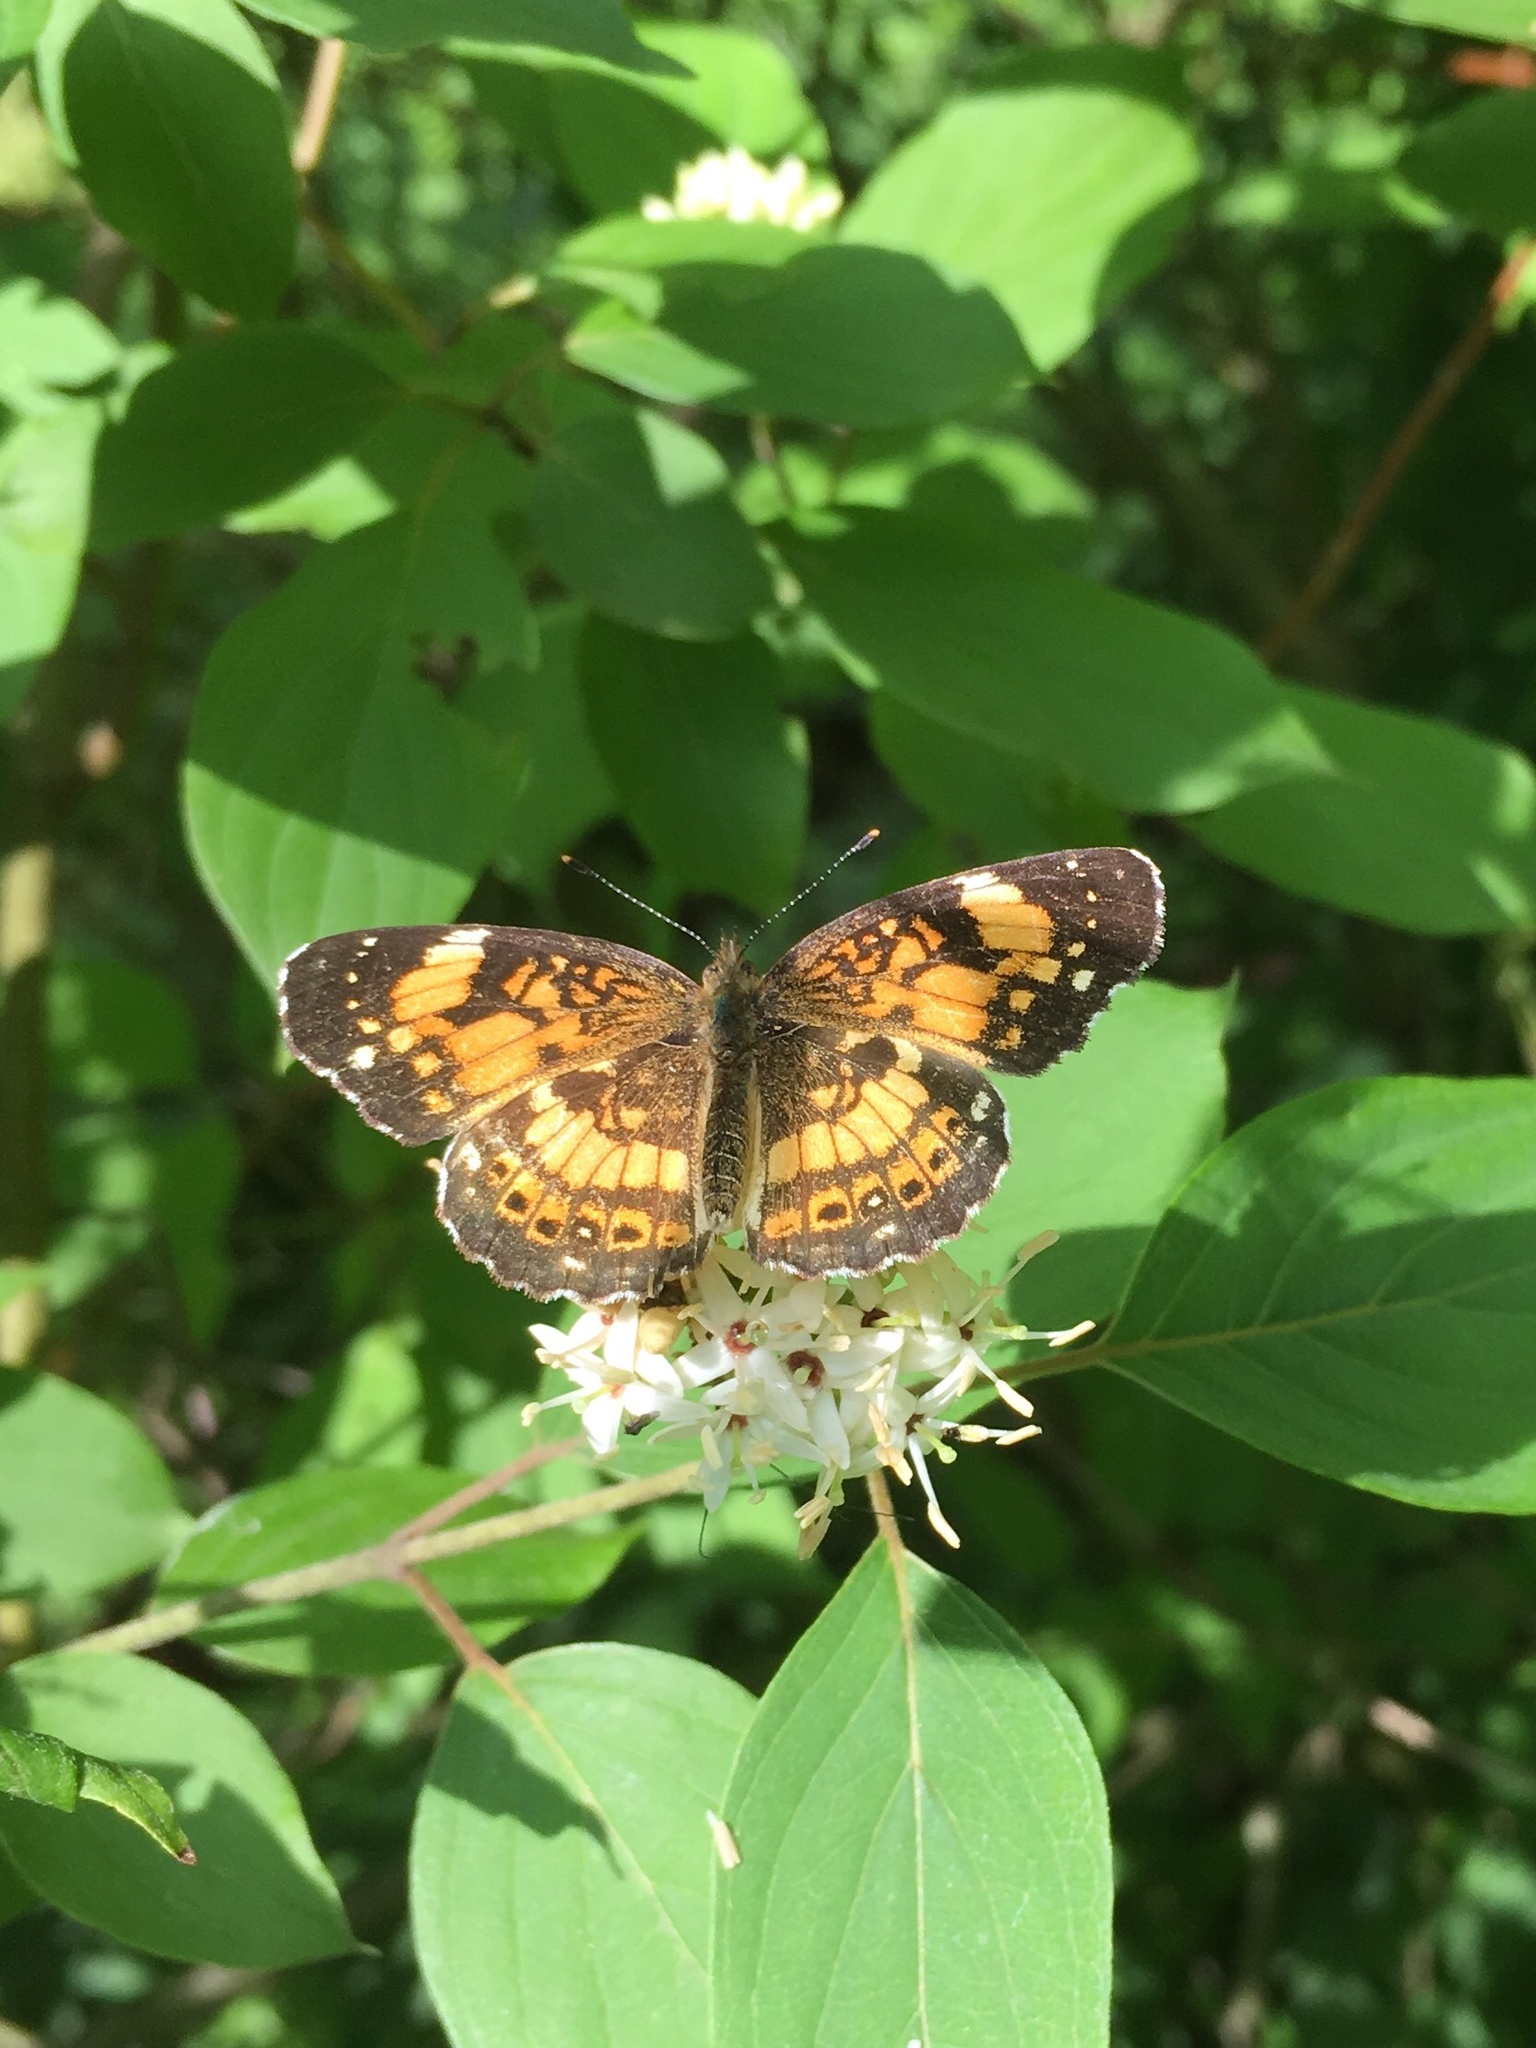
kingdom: Animalia
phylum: Arthropoda
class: Insecta
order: Lepidoptera
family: Nymphalidae
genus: Chlosyne
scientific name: Chlosyne nycteis
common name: Silvery checkerspot
